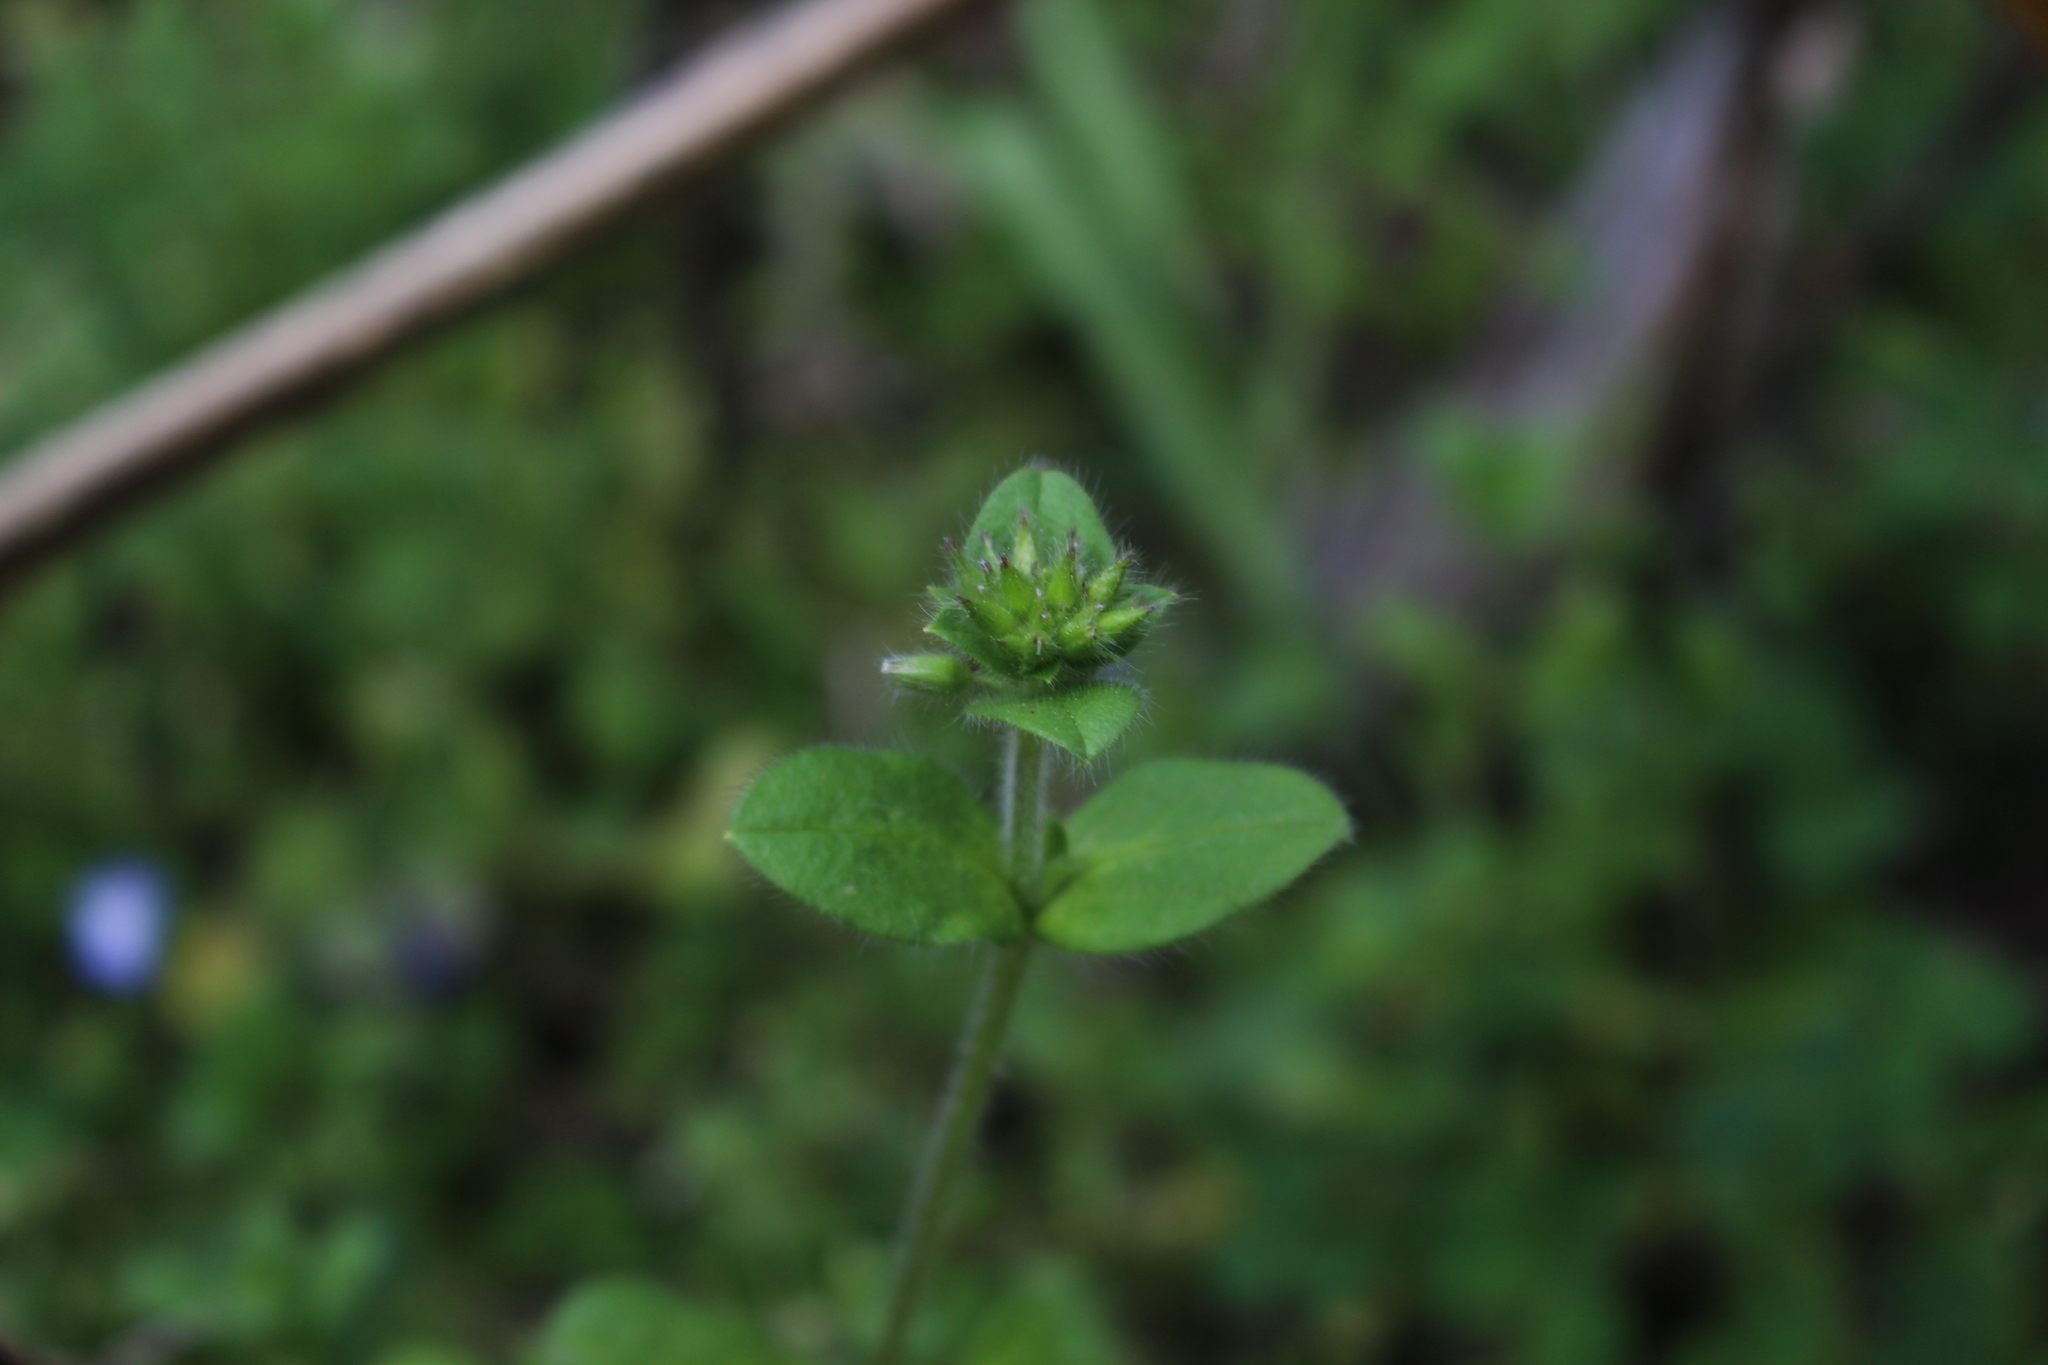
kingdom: Plantae
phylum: Tracheophyta
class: Magnoliopsida
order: Caryophyllales
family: Caryophyllaceae
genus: Cerastium
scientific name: Cerastium glomeratum
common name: Sticky chickweed
